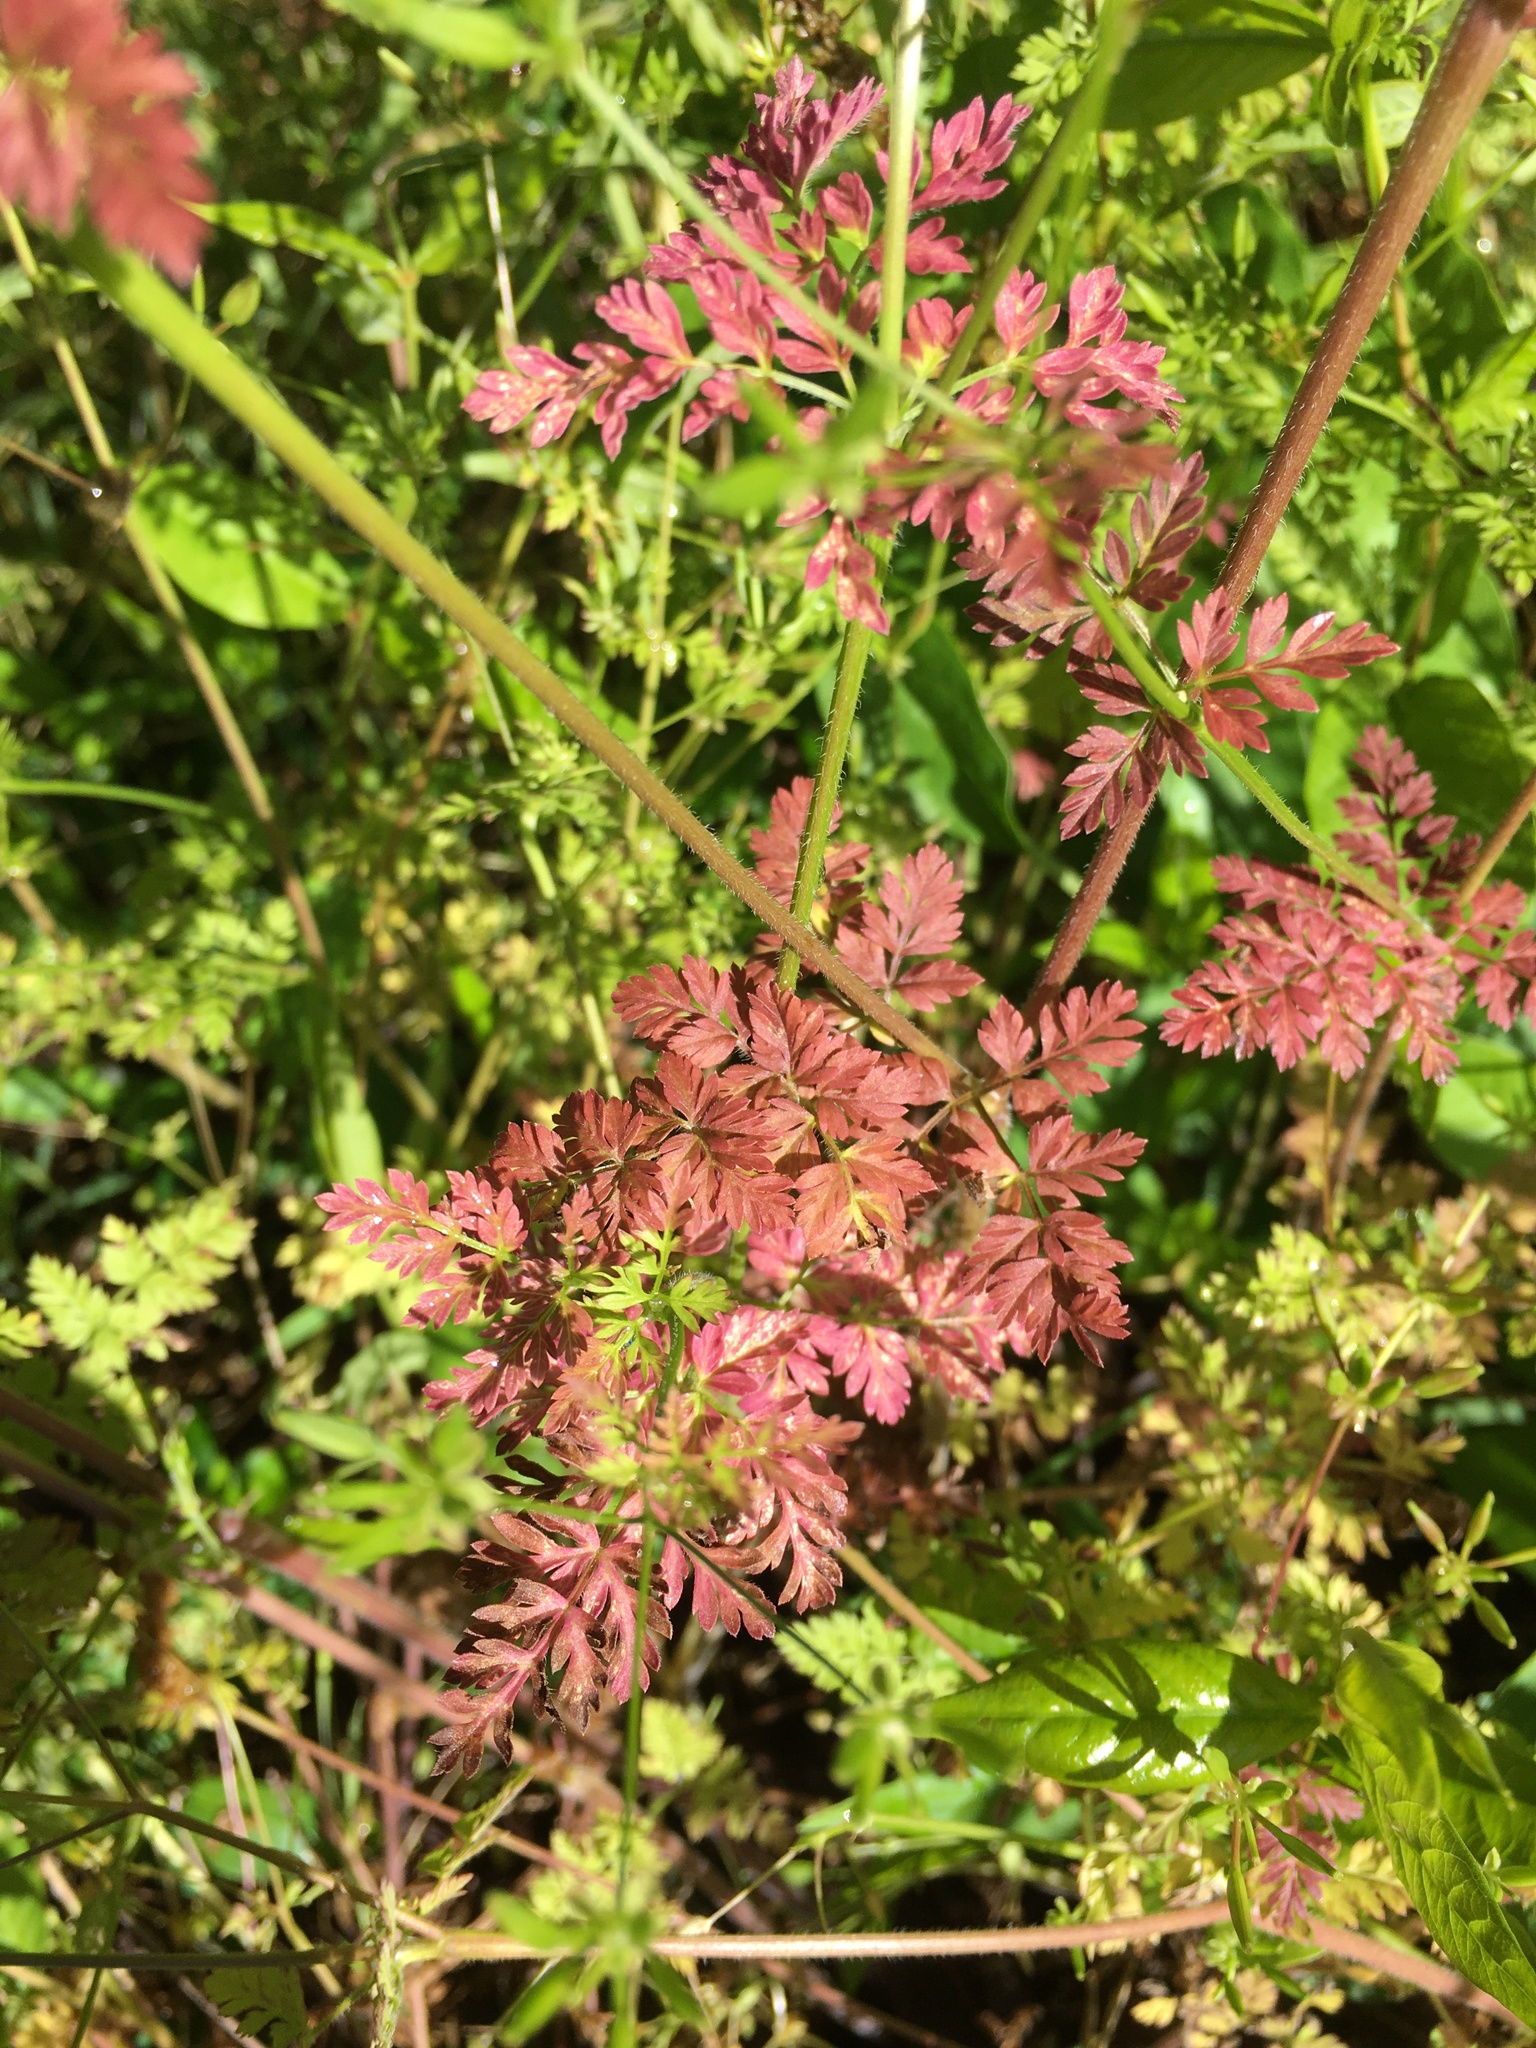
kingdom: Plantae
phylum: Tracheophyta
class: Magnoliopsida
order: Apiales
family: Apiaceae
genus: Chaerophyllum
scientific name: Chaerophyllum tainturieri
